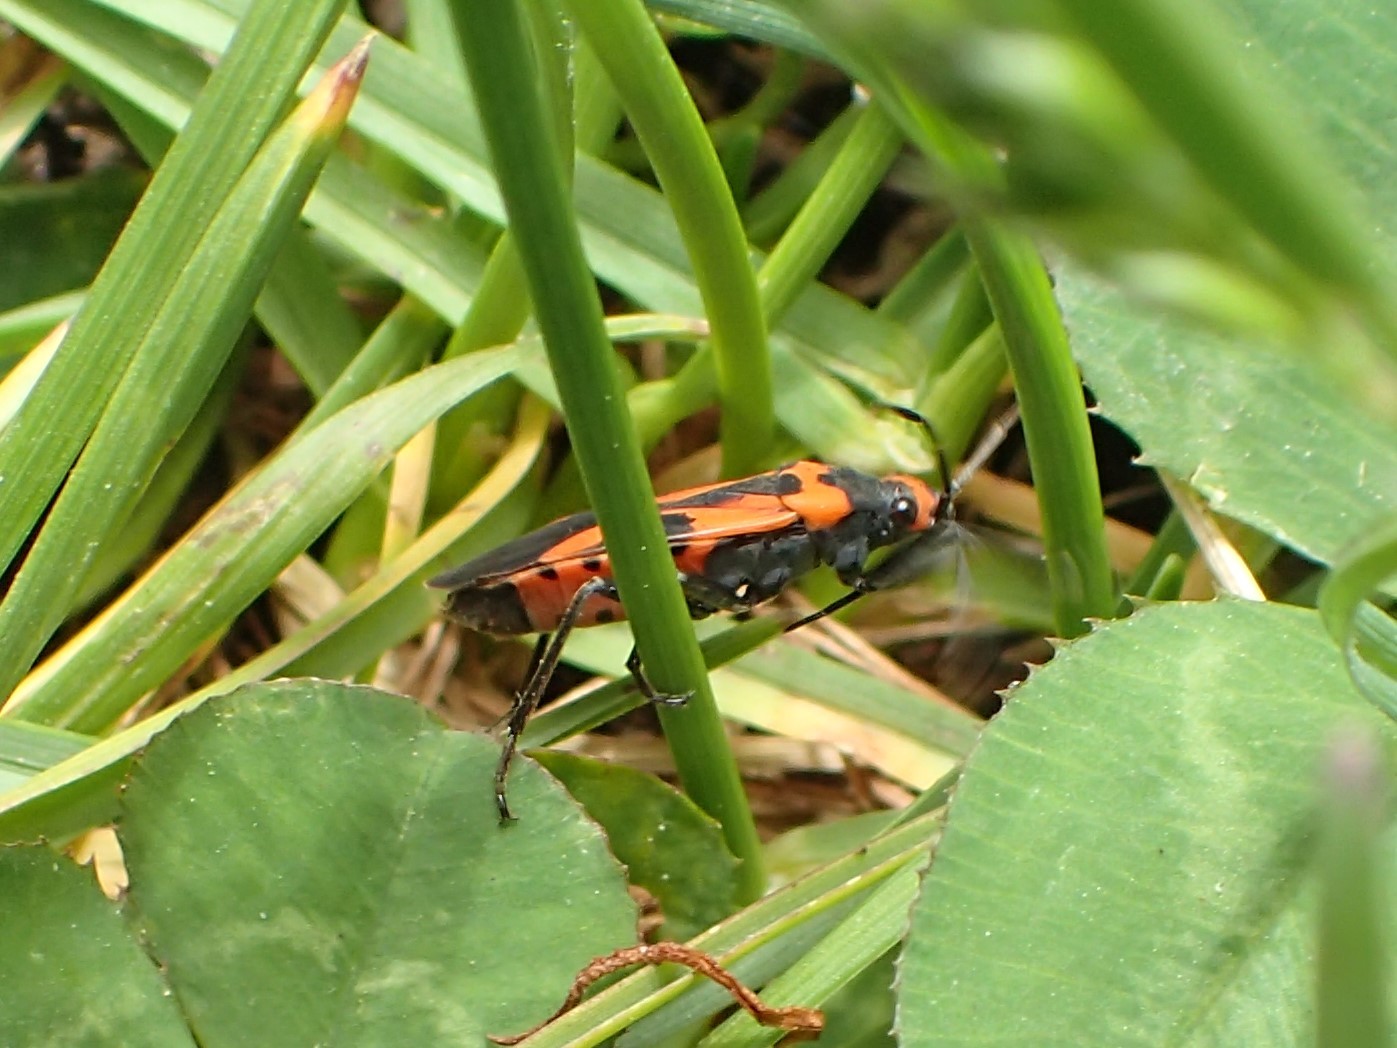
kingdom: Animalia
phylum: Arthropoda
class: Insecta
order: Hemiptera
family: Lygaeidae
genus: Lygaeus
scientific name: Lygaeus turcicus
